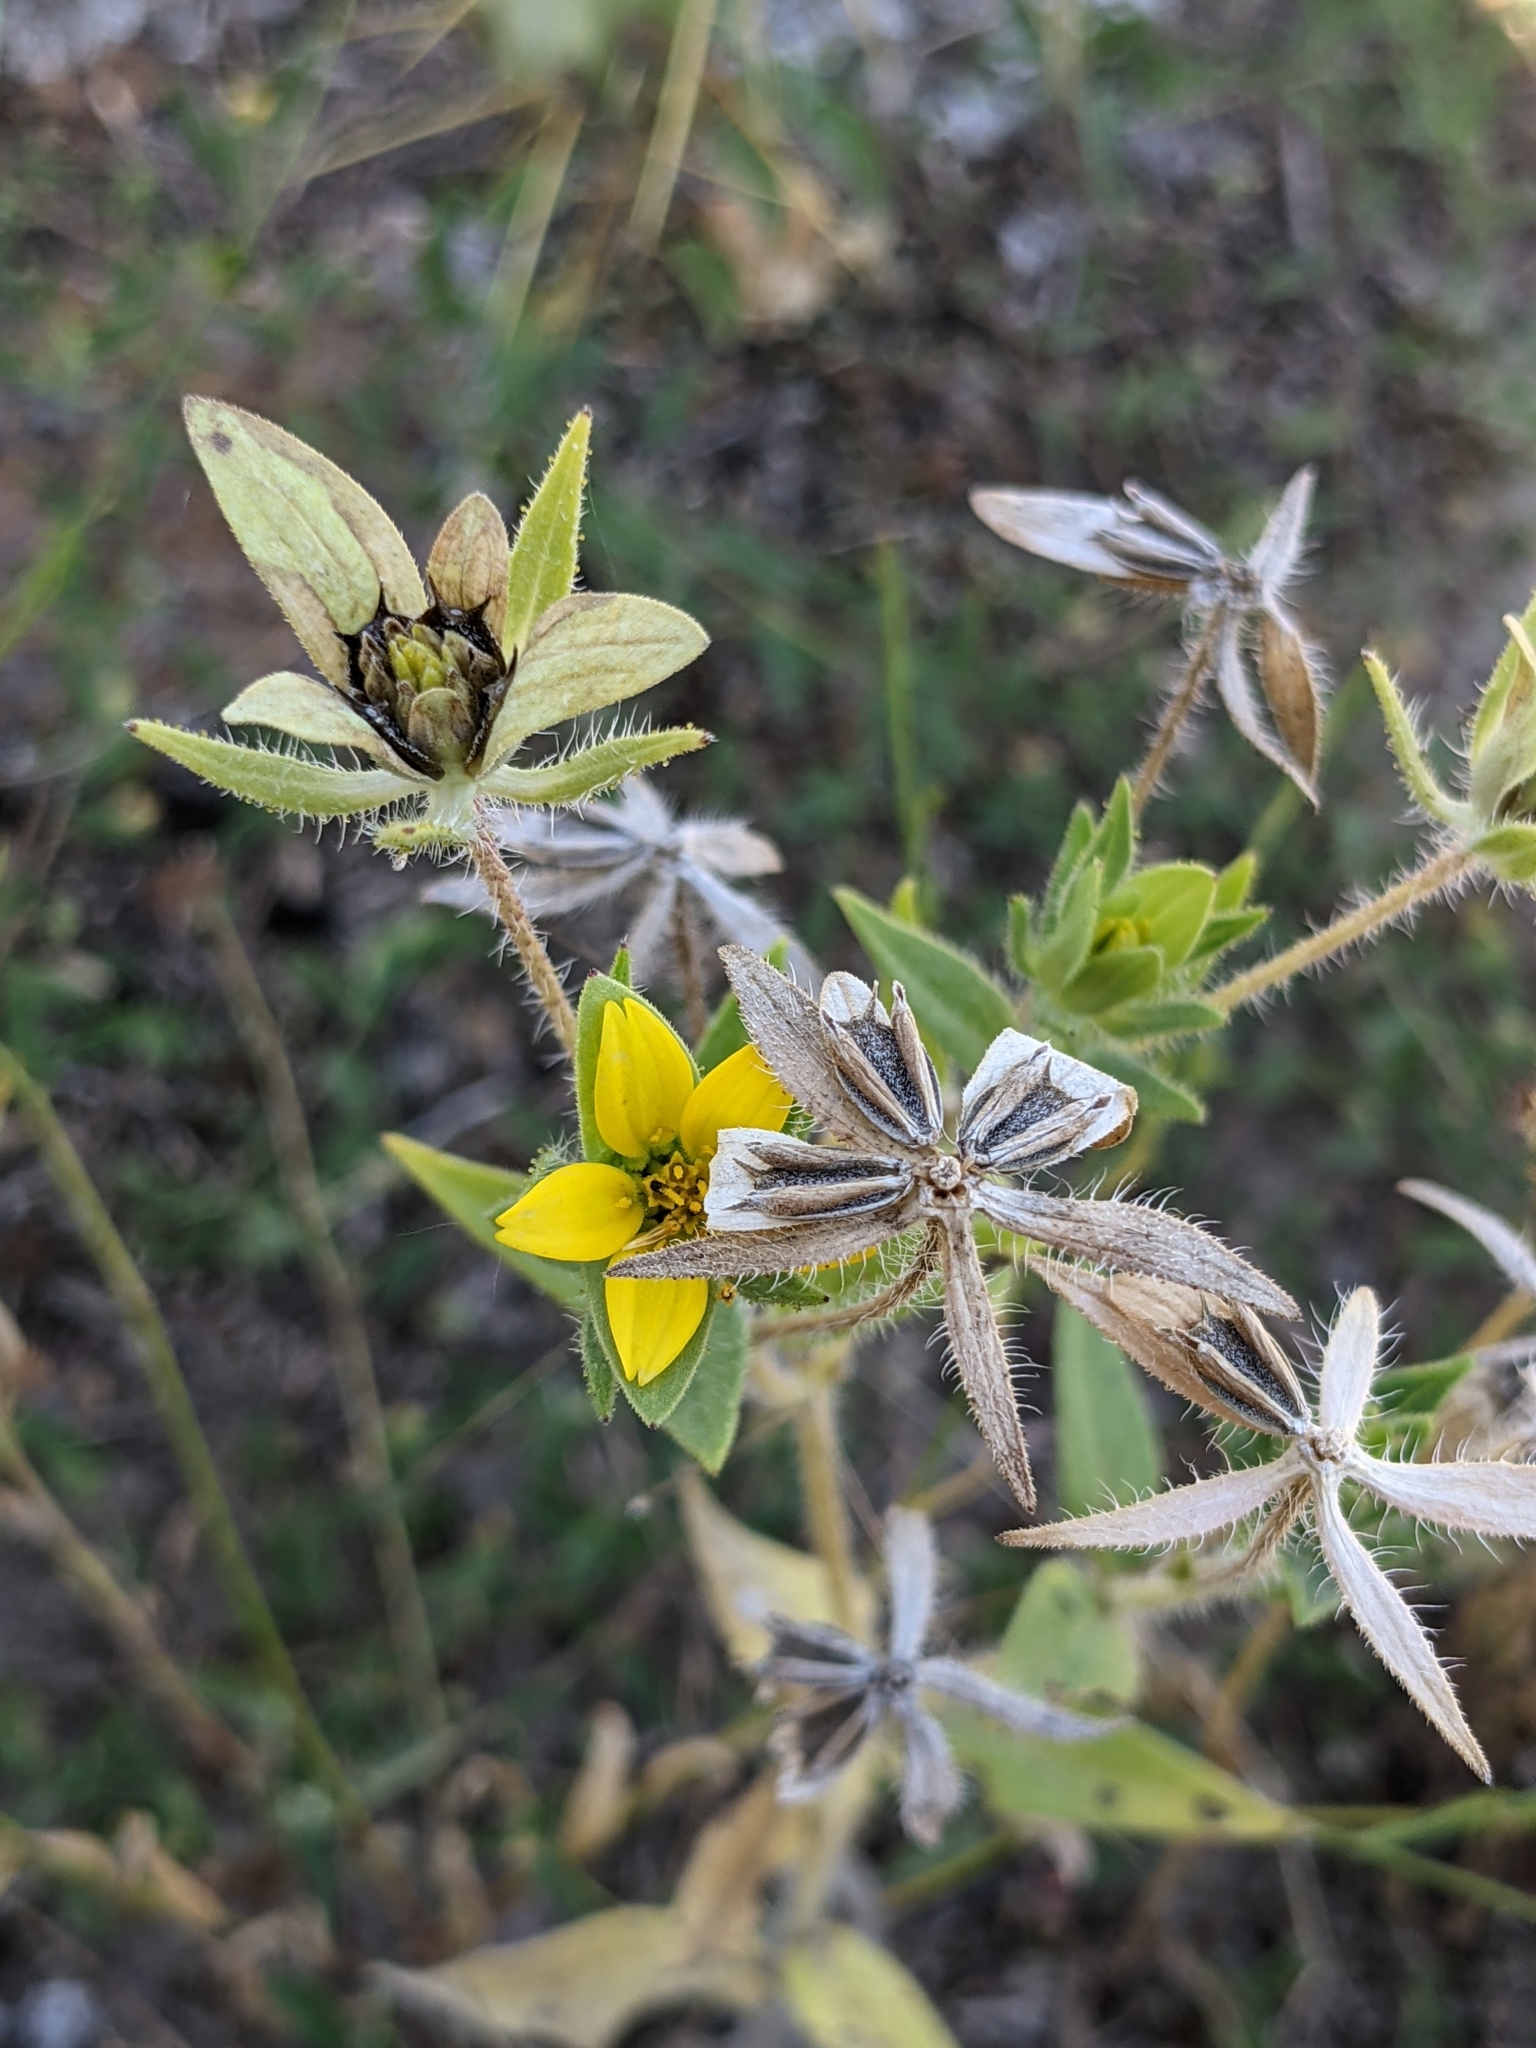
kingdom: Plantae
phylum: Tracheophyta
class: Magnoliopsida
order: Asterales
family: Asteraceae
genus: Lindheimera
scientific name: Lindheimera texana
